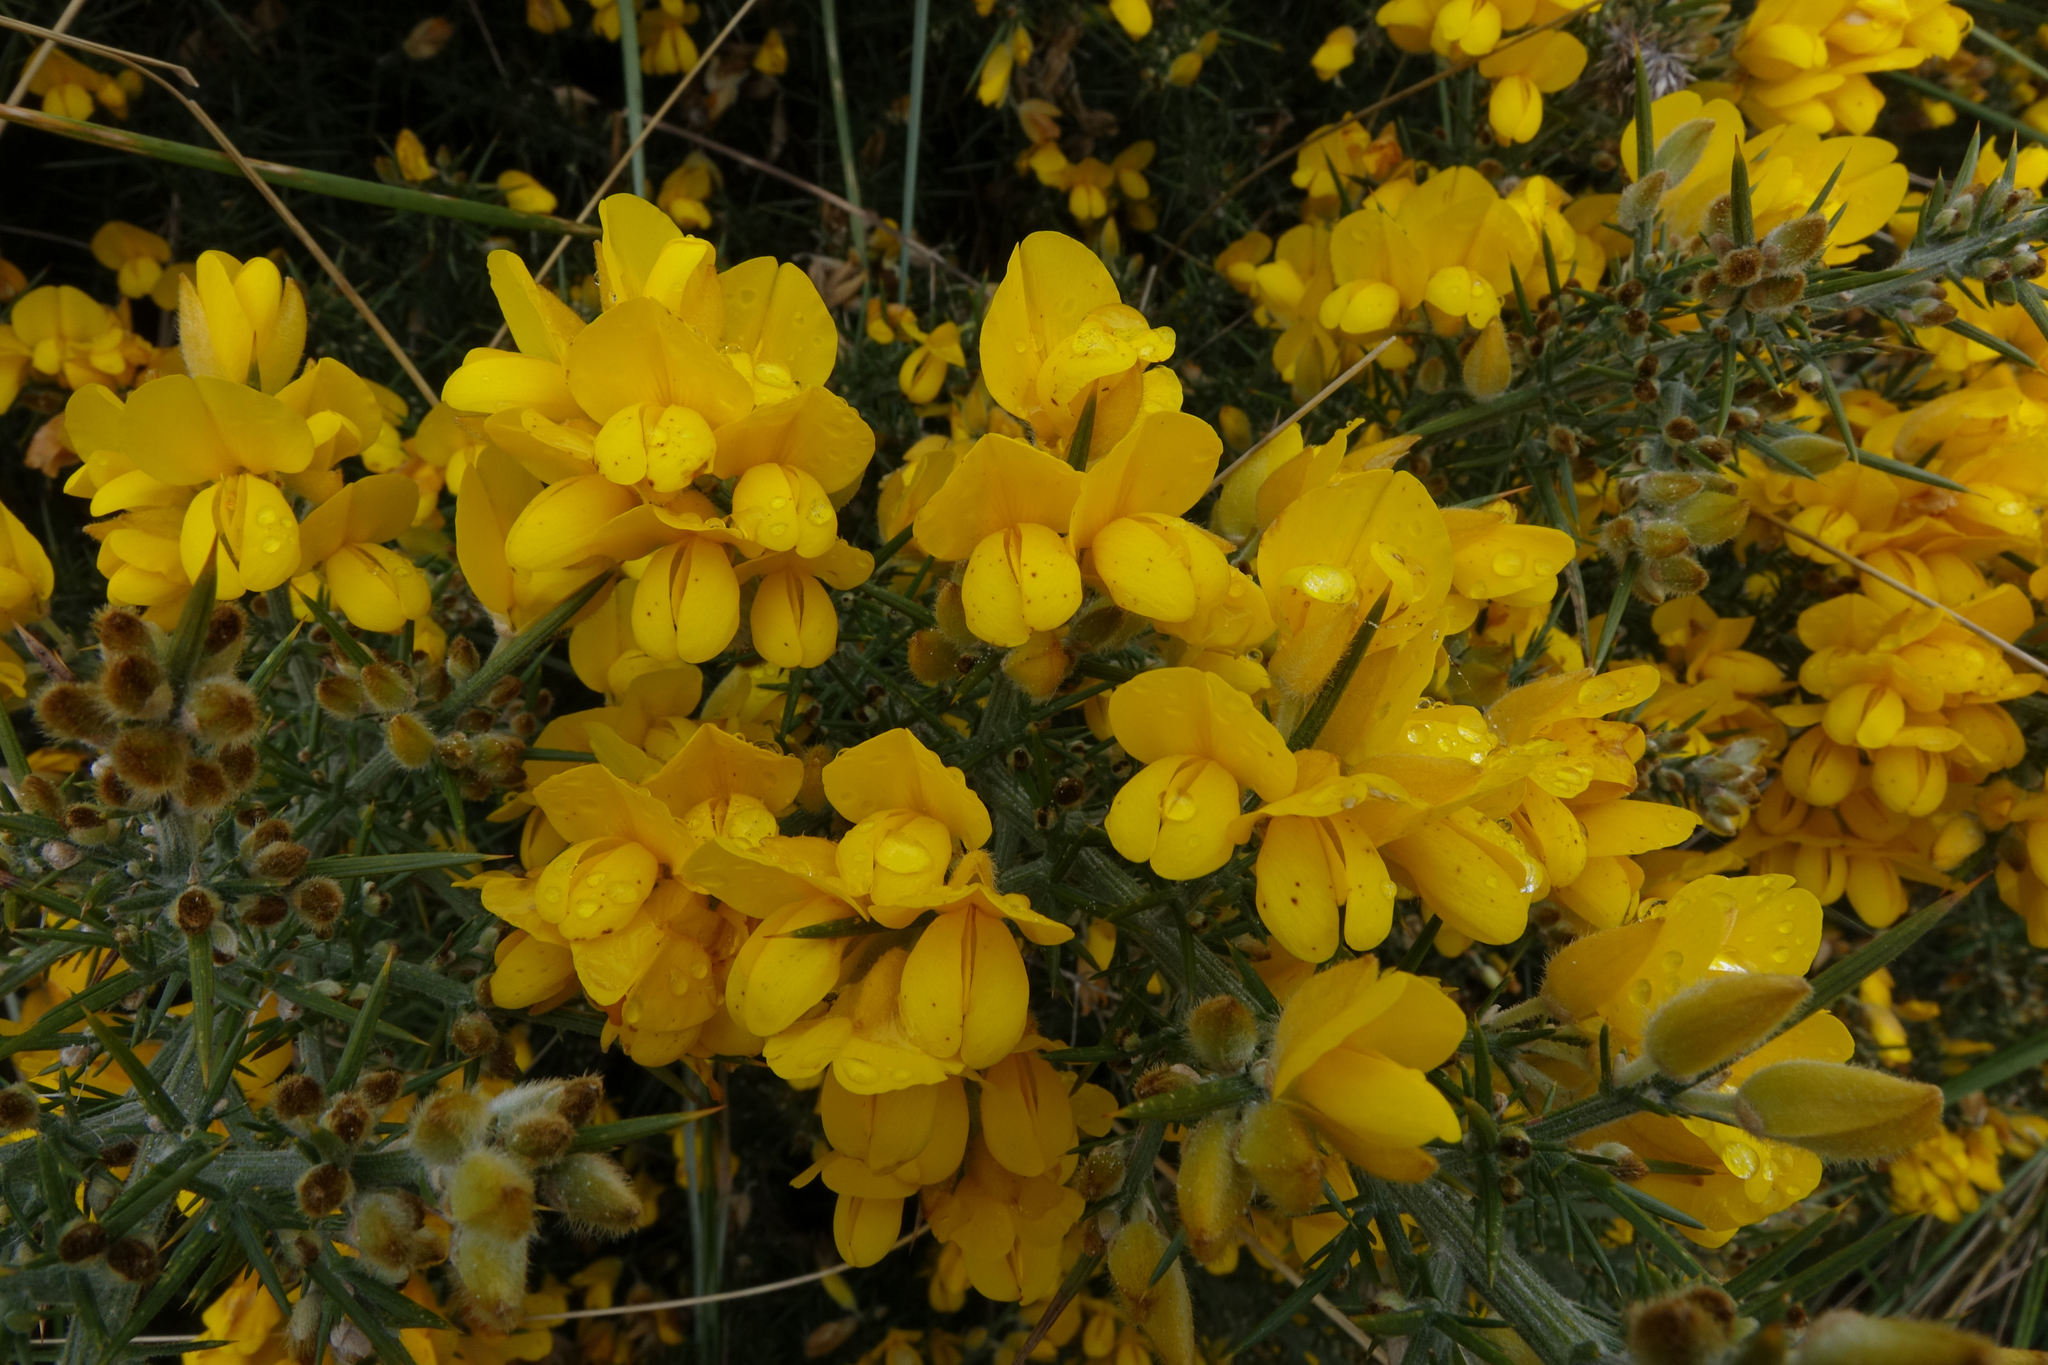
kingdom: Plantae
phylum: Tracheophyta
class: Magnoliopsida
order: Fabales
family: Fabaceae
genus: Ulex
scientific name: Ulex europaeus
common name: Common gorse
